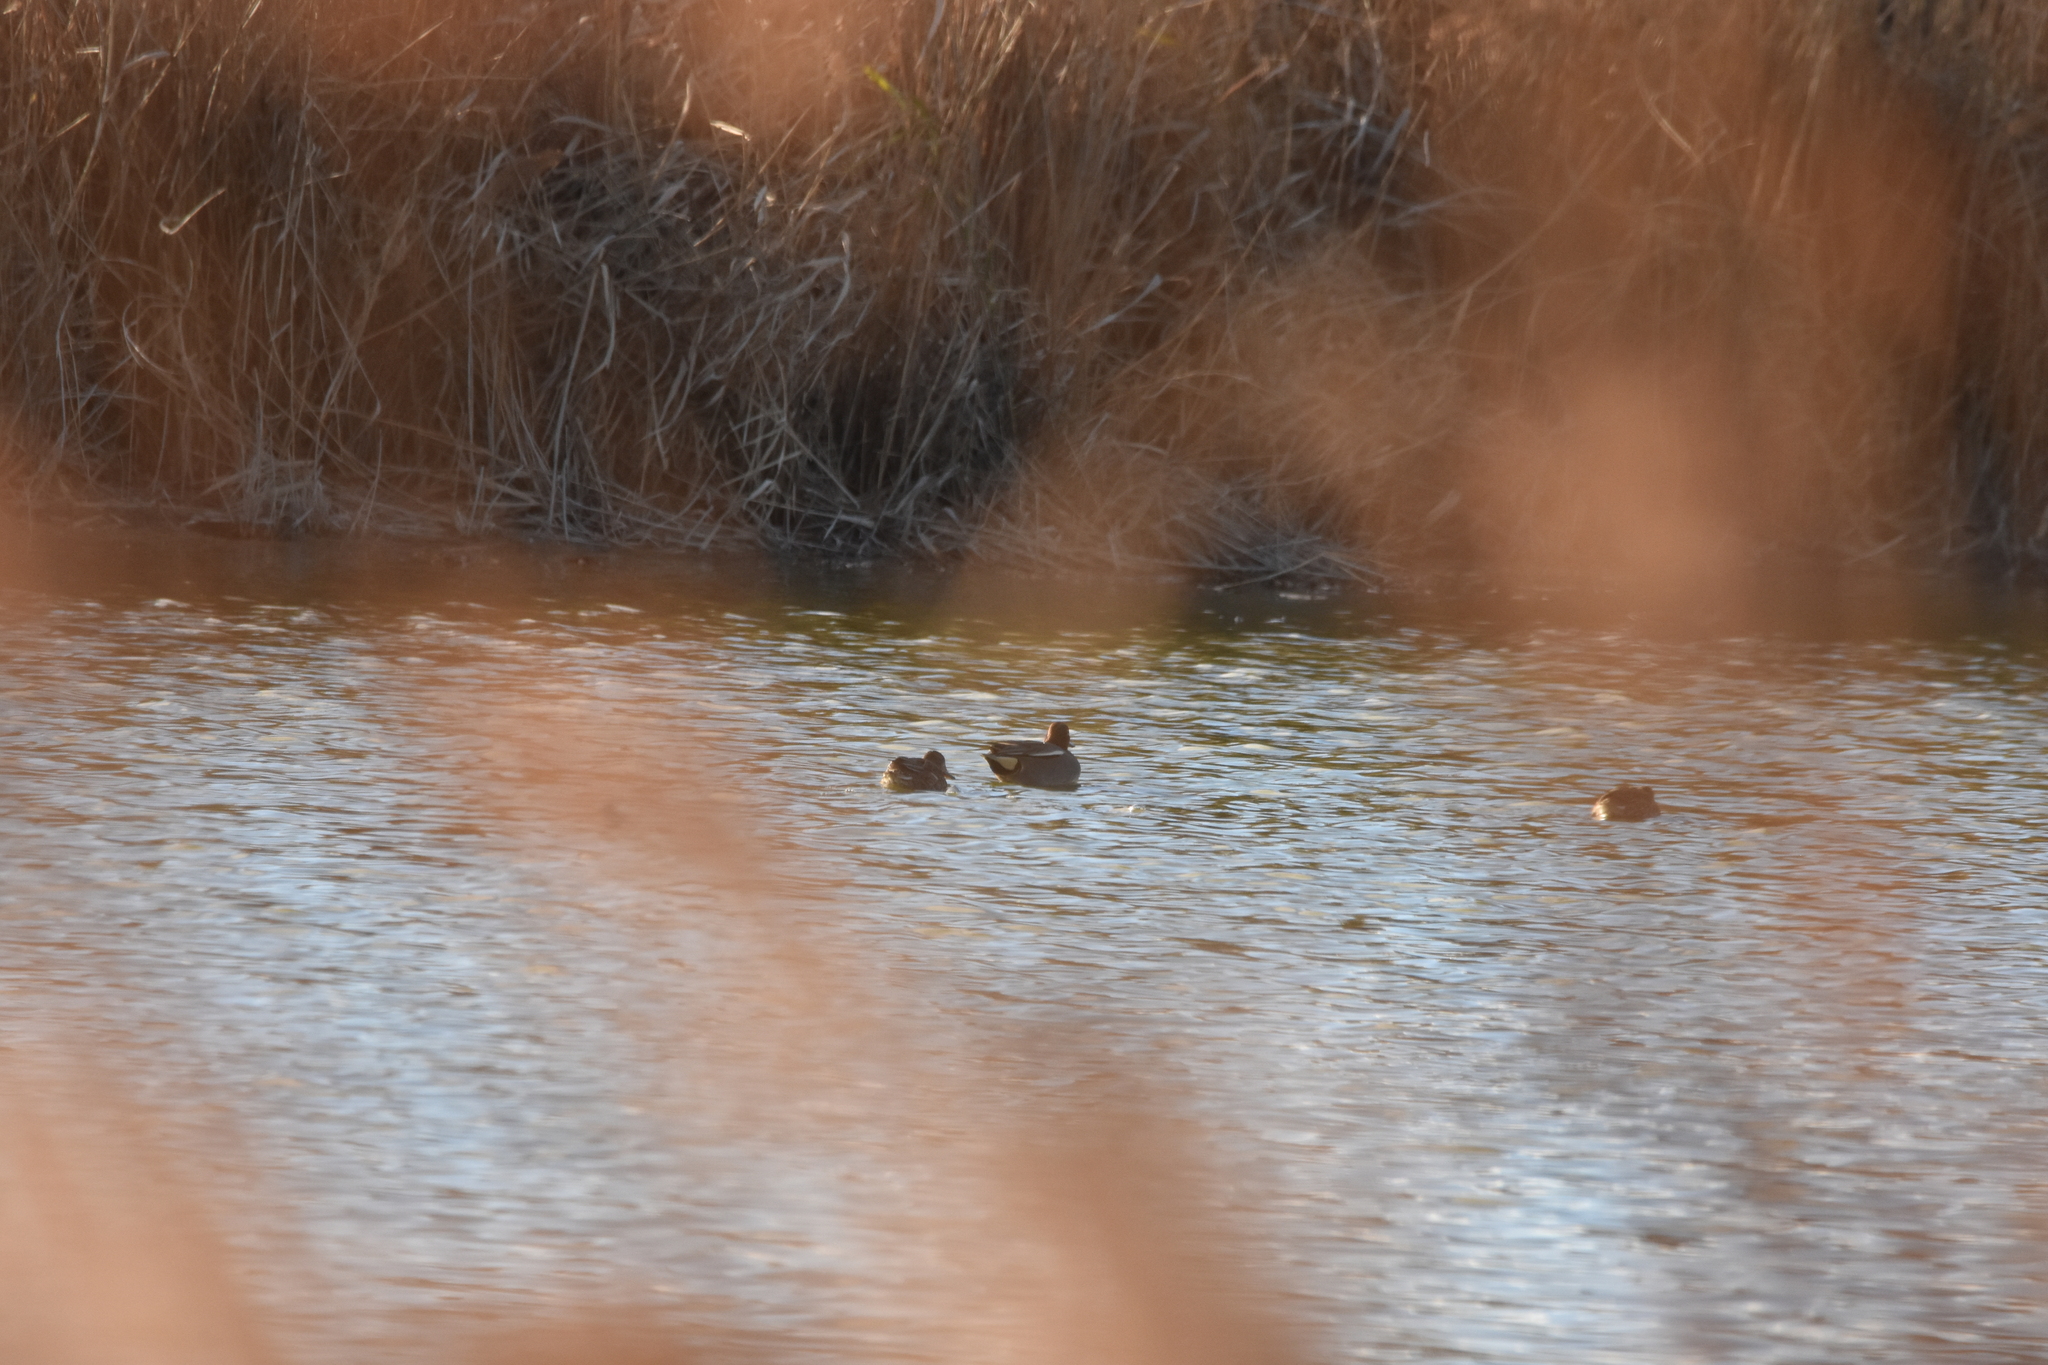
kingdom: Animalia
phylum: Chordata
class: Aves
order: Anseriformes
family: Anatidae
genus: Anas
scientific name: Anas crecca
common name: Eurasian teal
